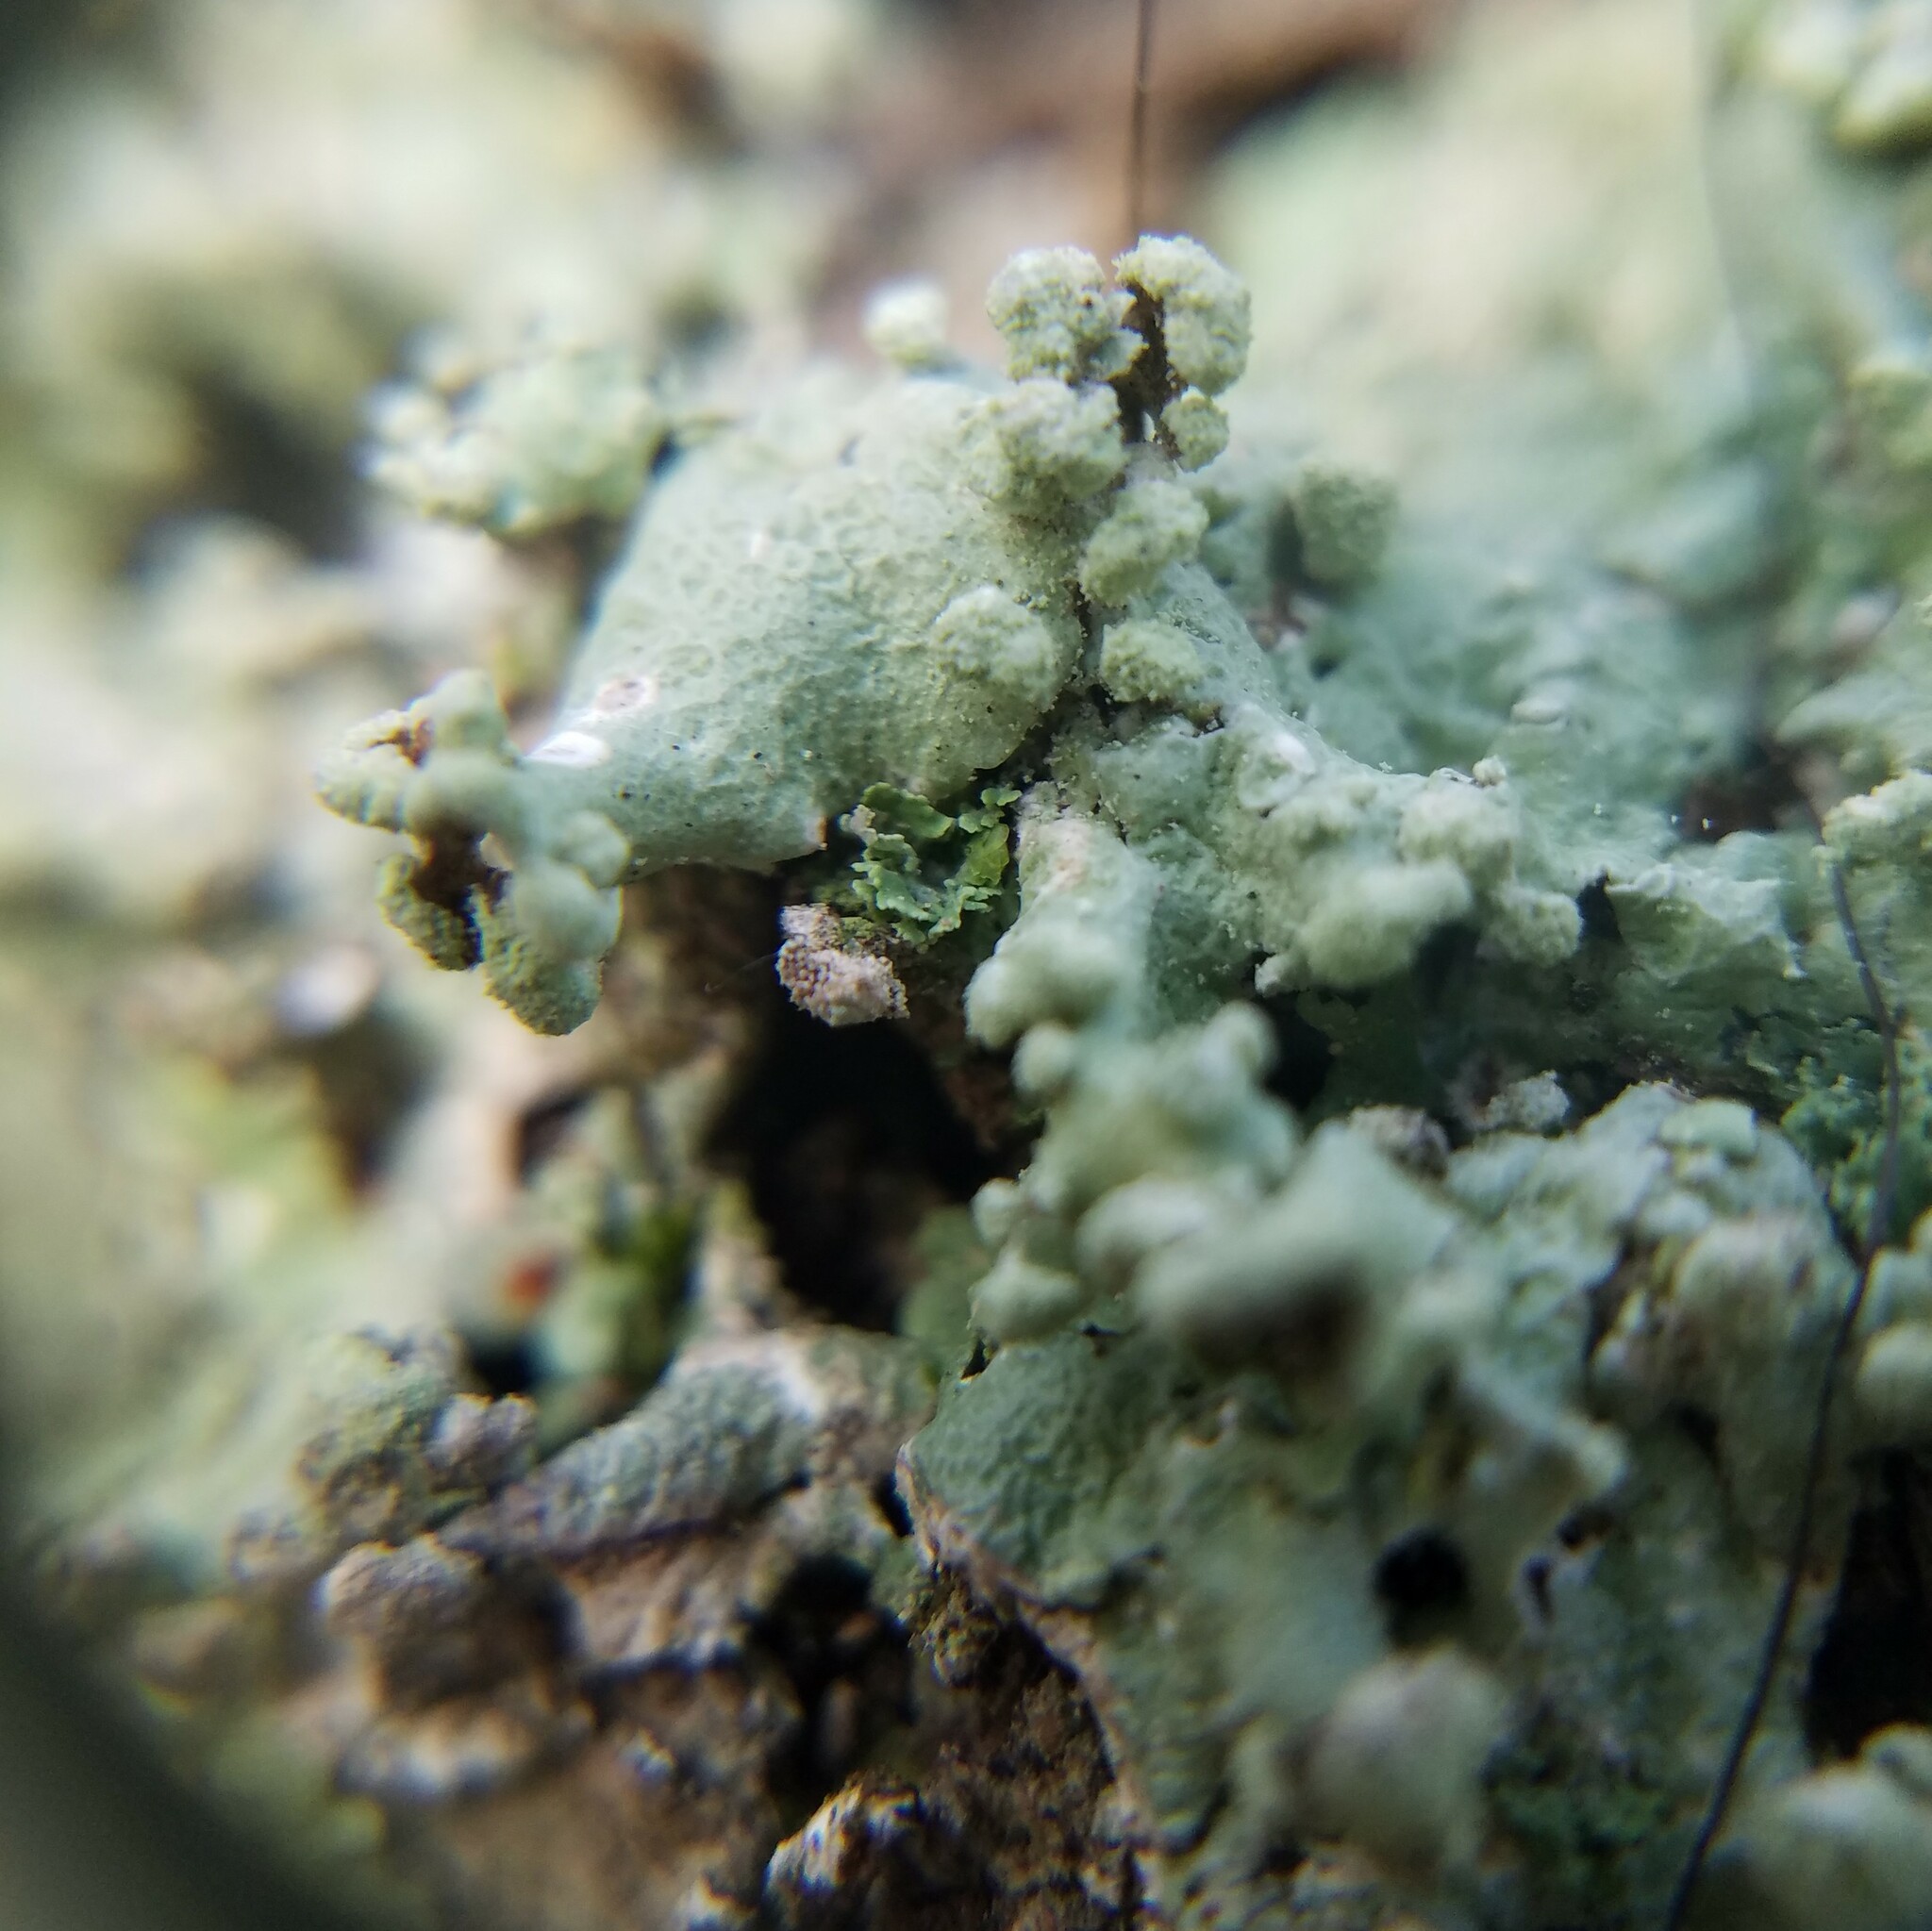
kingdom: Fungi
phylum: Ascomycota
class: Lecanoromycetes
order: Lecanorales
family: Parmeliaceae
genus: Canoparmelia
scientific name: Canoparmelia cryptochlorophaea
